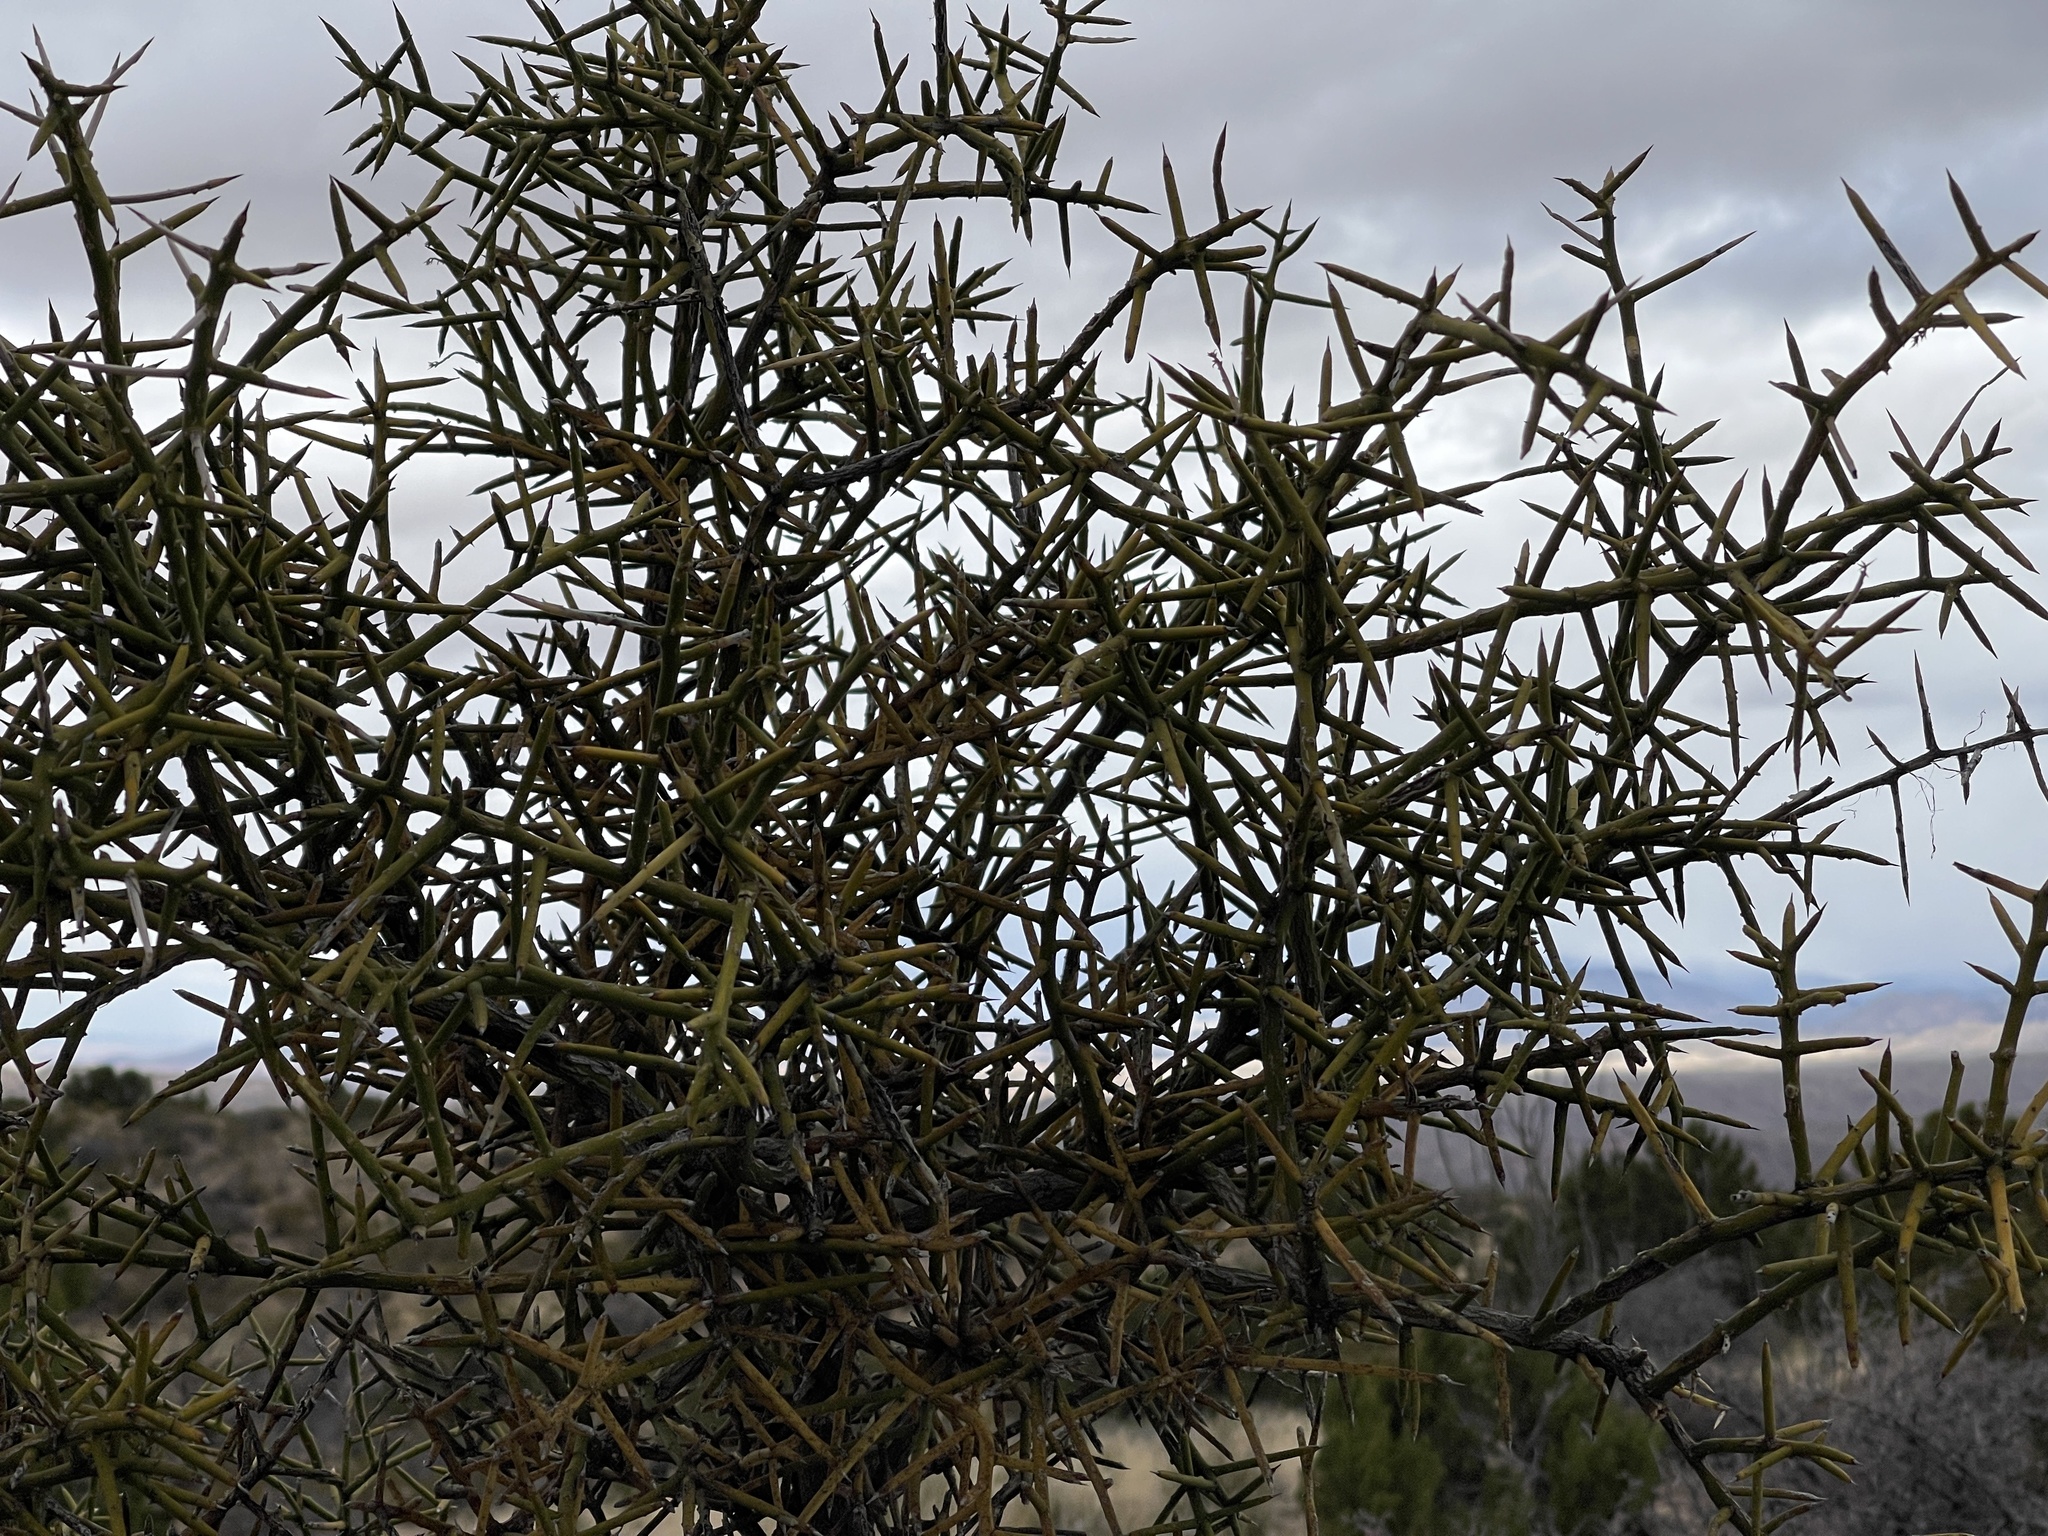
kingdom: Plantae
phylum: Tracheophyta
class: Magnoliopsida
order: Brassicales
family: Koeberliniaceae
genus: Koeberlinia
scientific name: Koeberlinia spinosa
